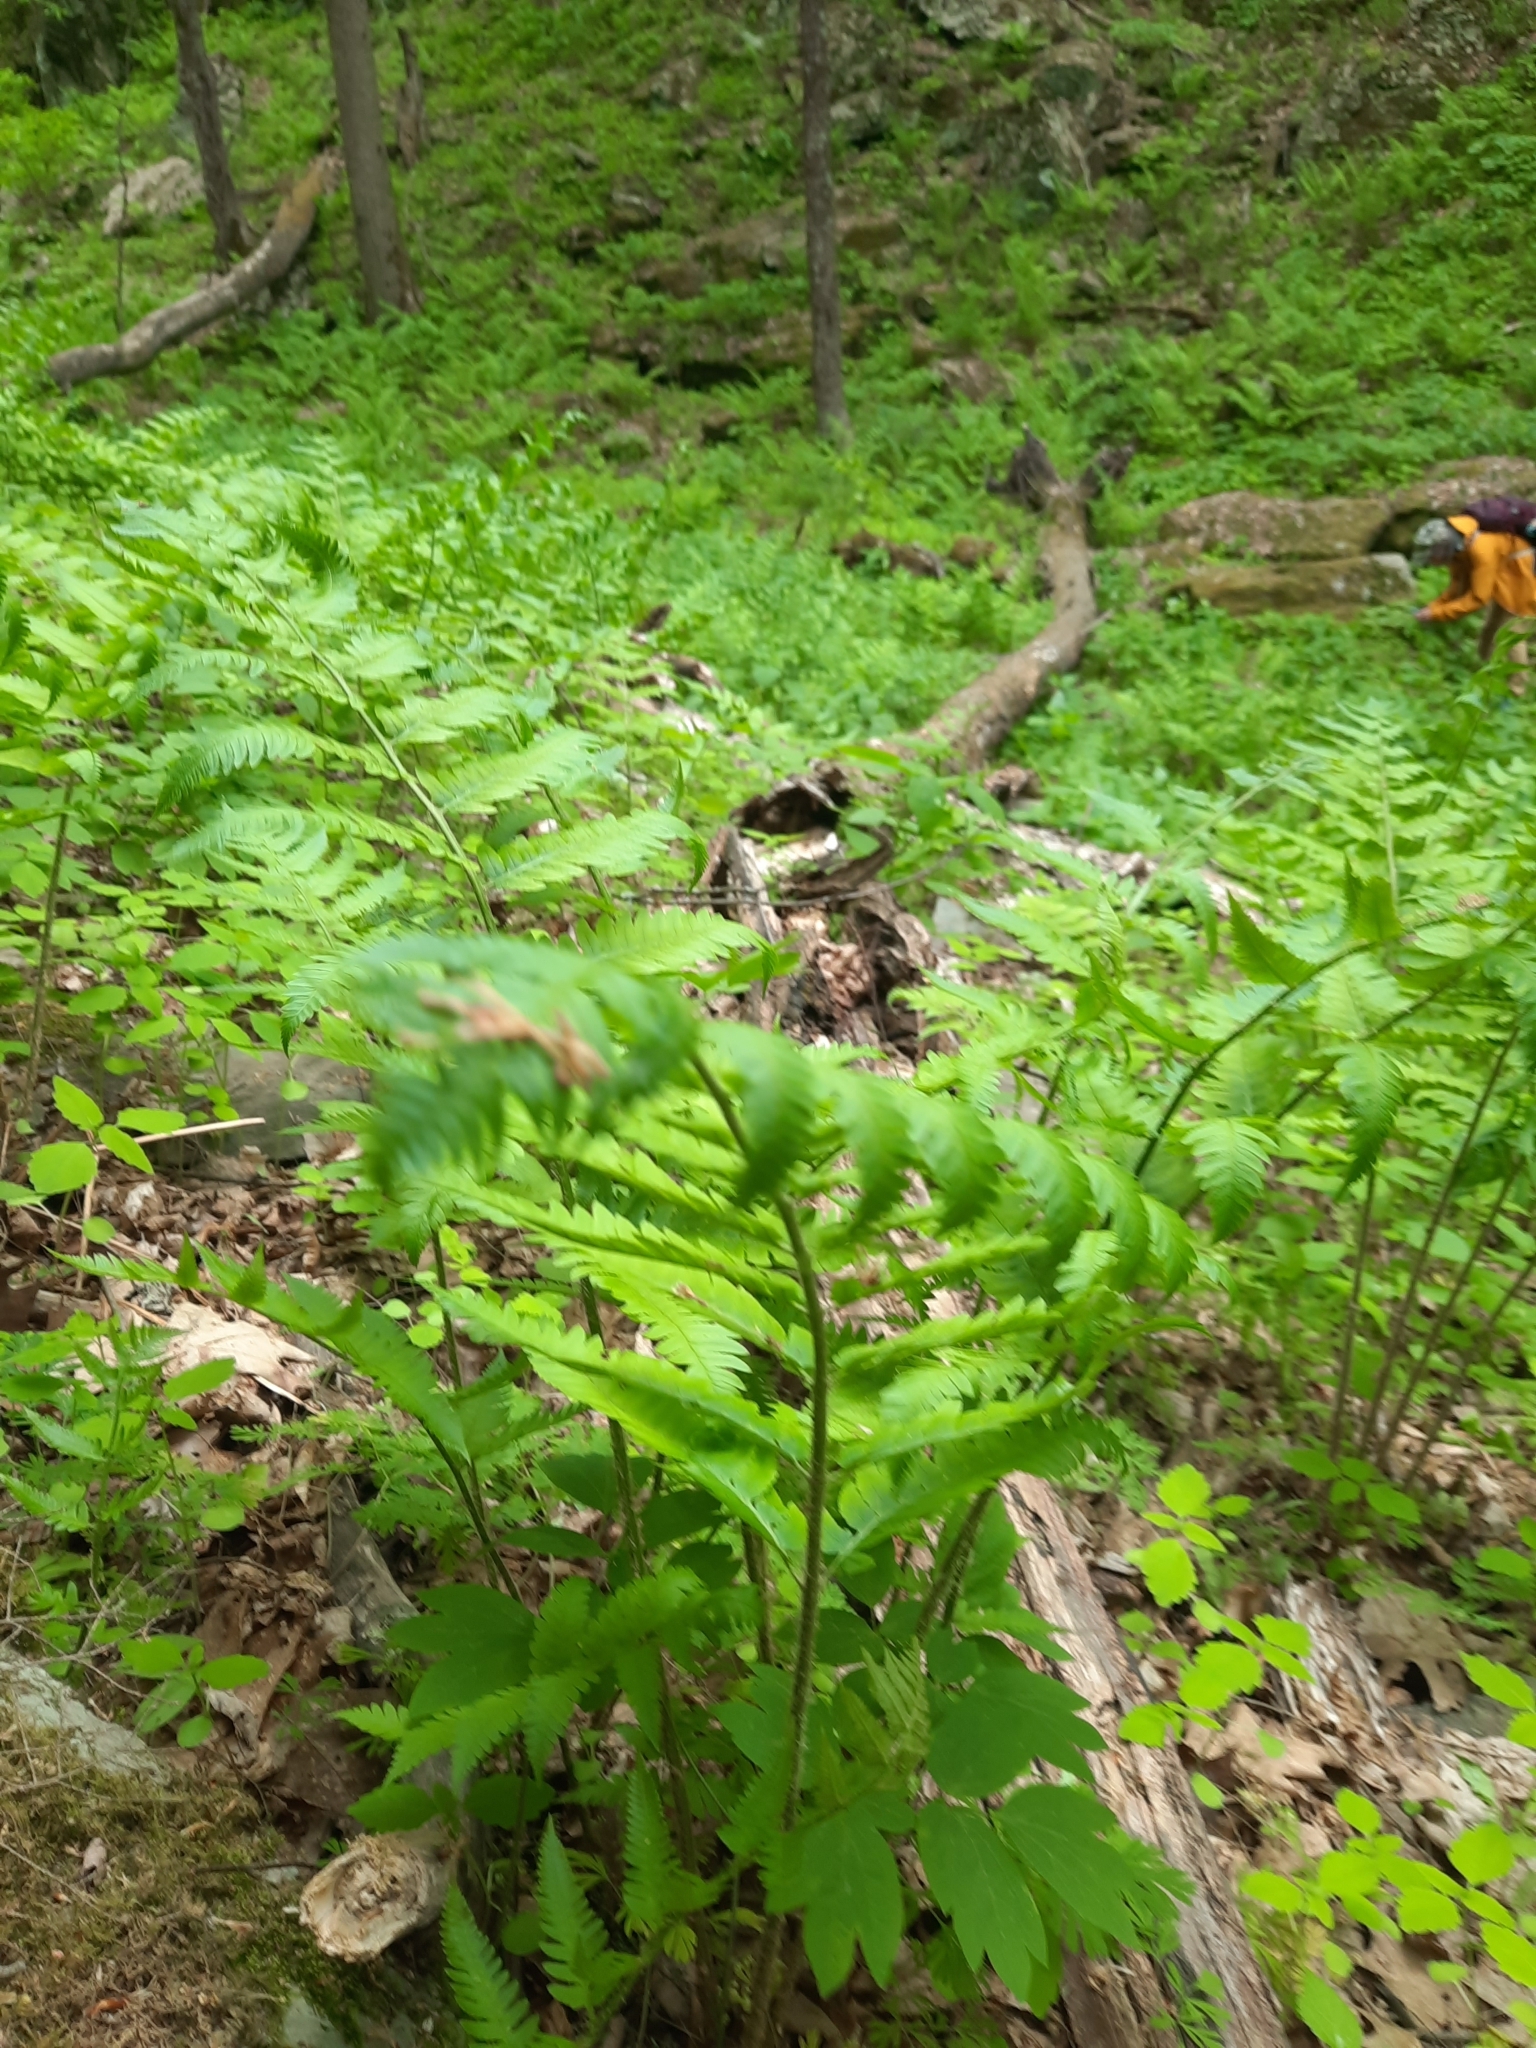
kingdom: Plantae
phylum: Tracheophyta
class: Polypodiopsida
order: Polypodiales
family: Dryopteridaceae
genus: Dryopteris
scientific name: Dryopteris goldieana
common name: Goldie's fern
